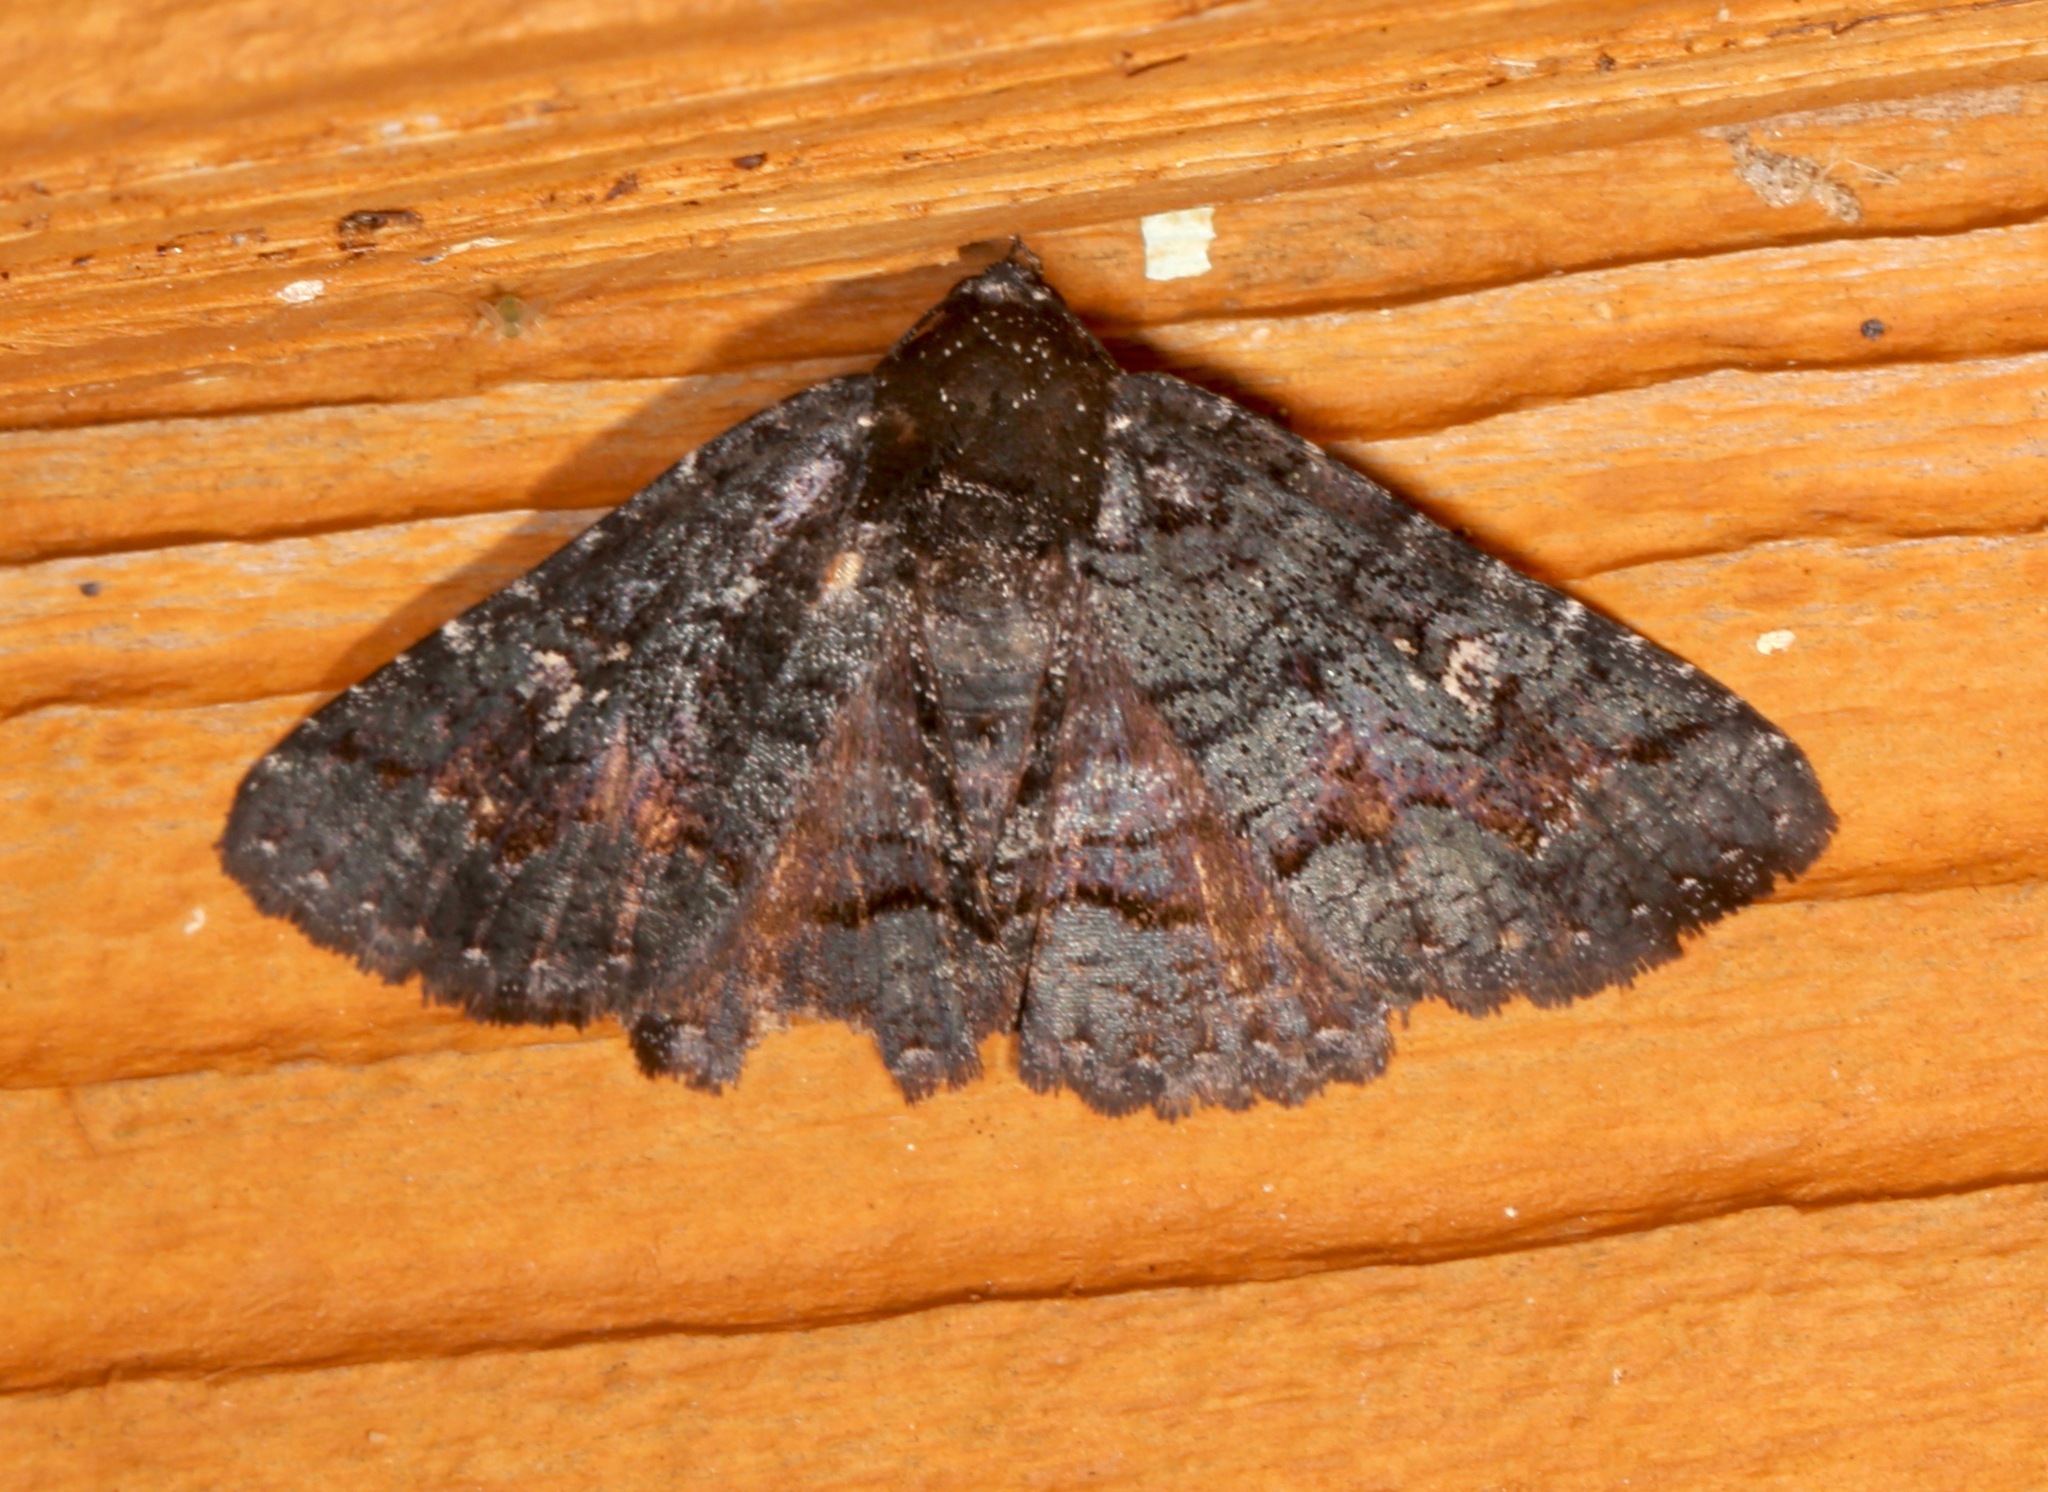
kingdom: Animalia
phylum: Arthropoda
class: Insecta
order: Lepidoptera
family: Erebidae
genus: Zale
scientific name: Zale coracias
